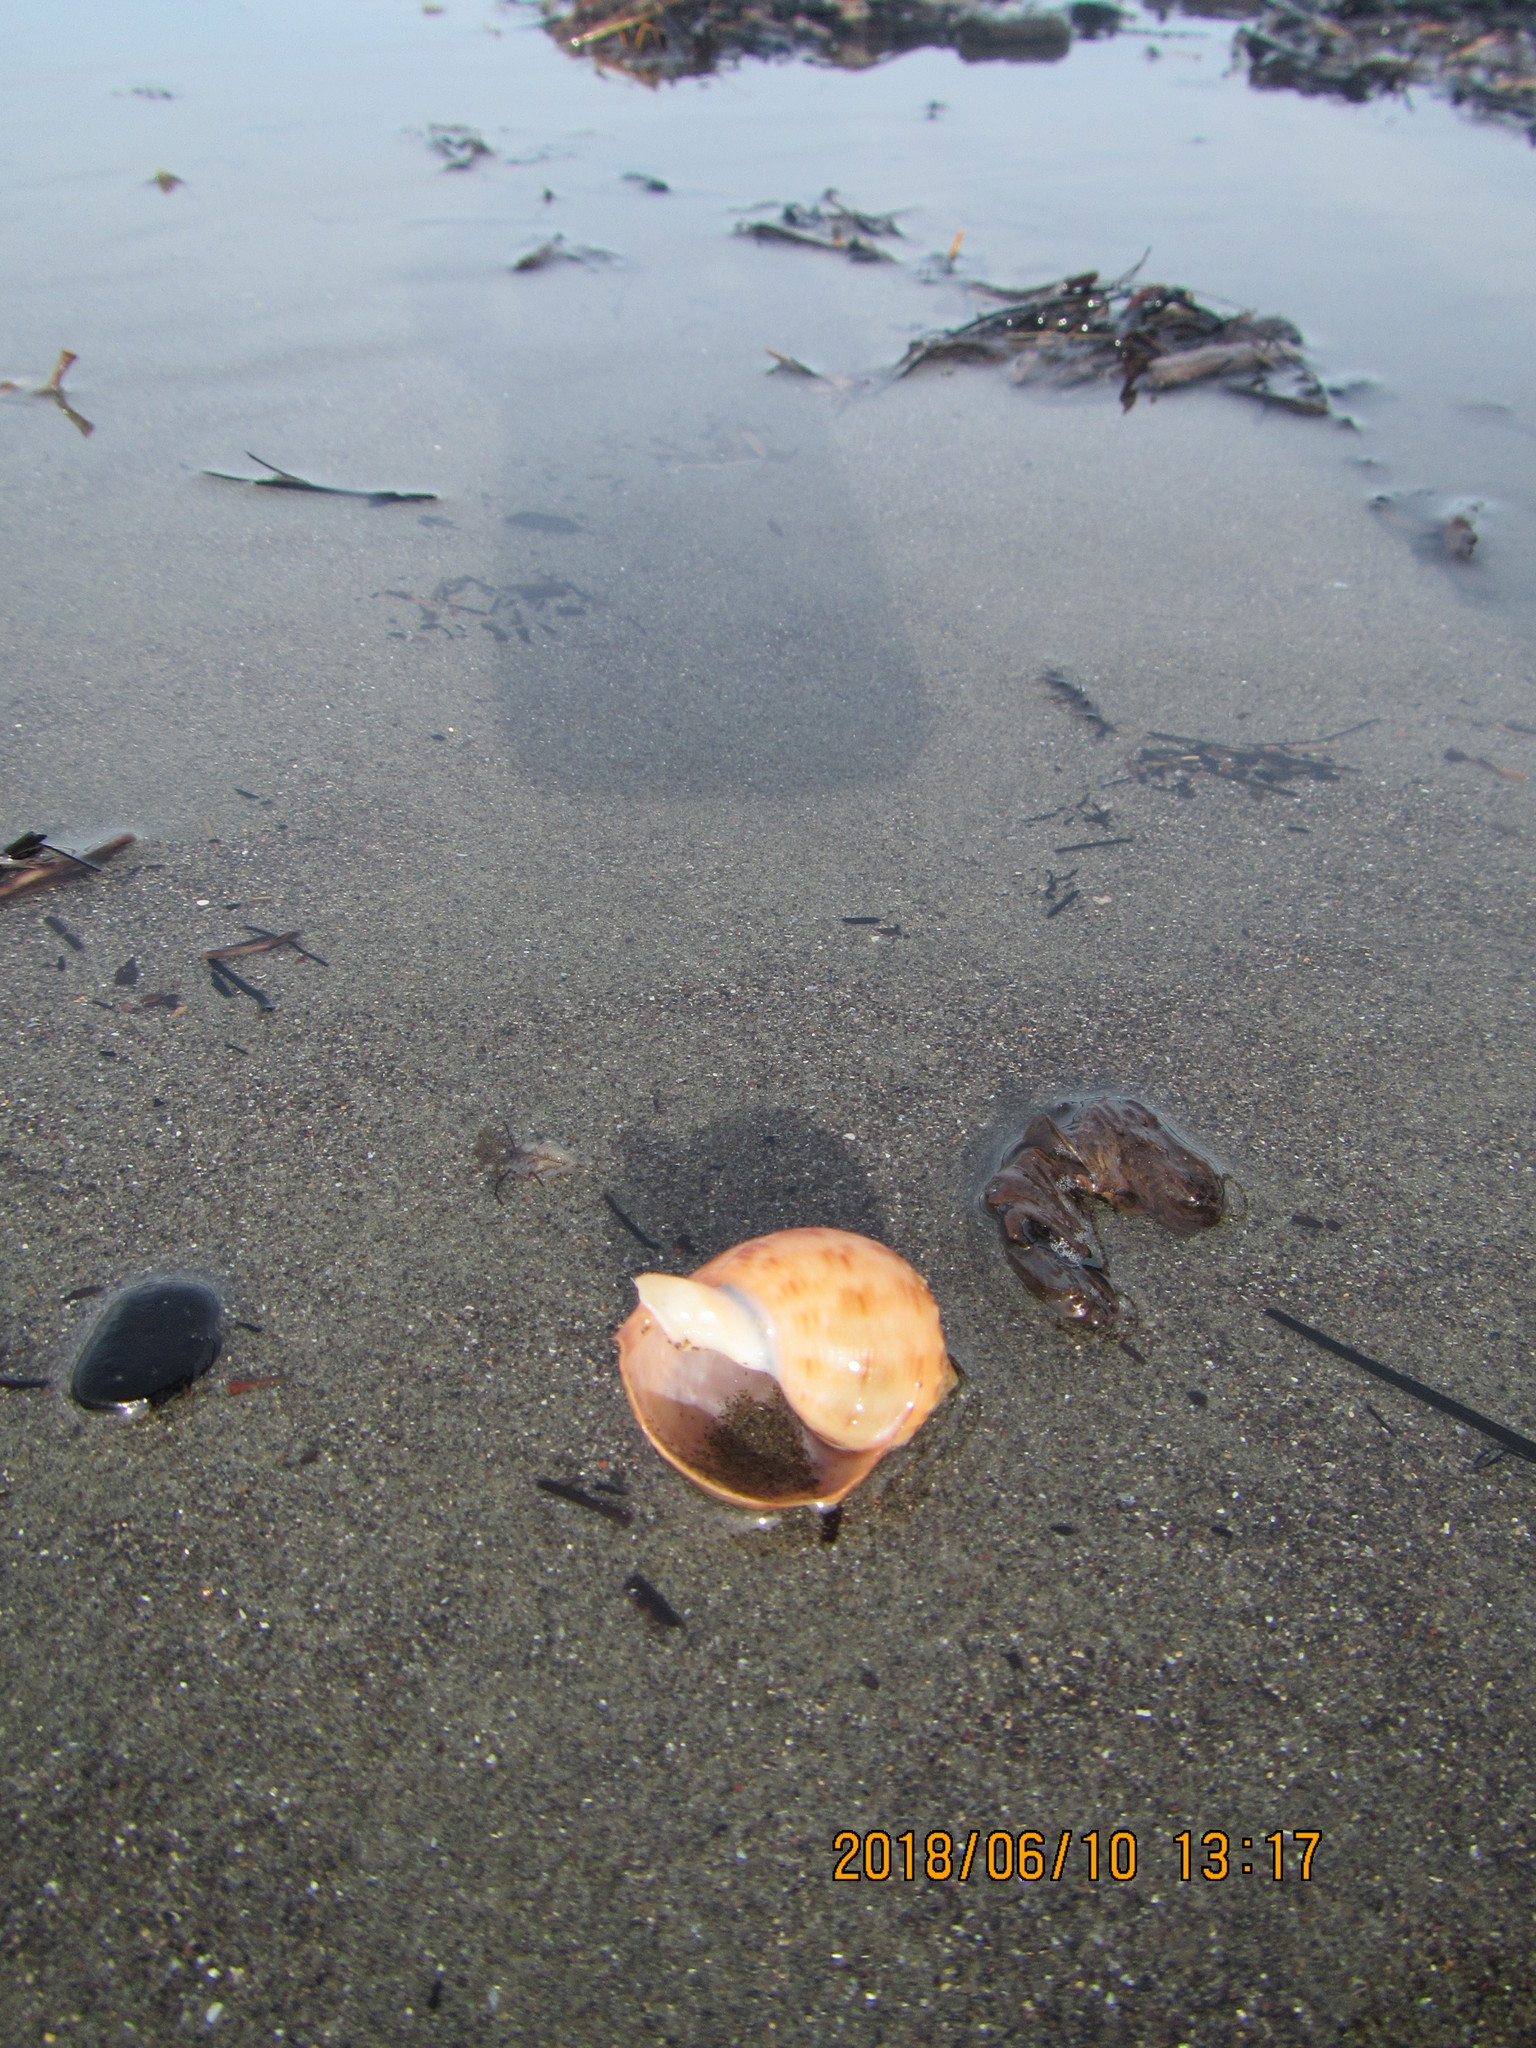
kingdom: Animalia
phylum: Mollusca
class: Gastropoda
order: Littorinimorpha
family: Cassidae
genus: Semicassis
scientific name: Semicassis pyrum
